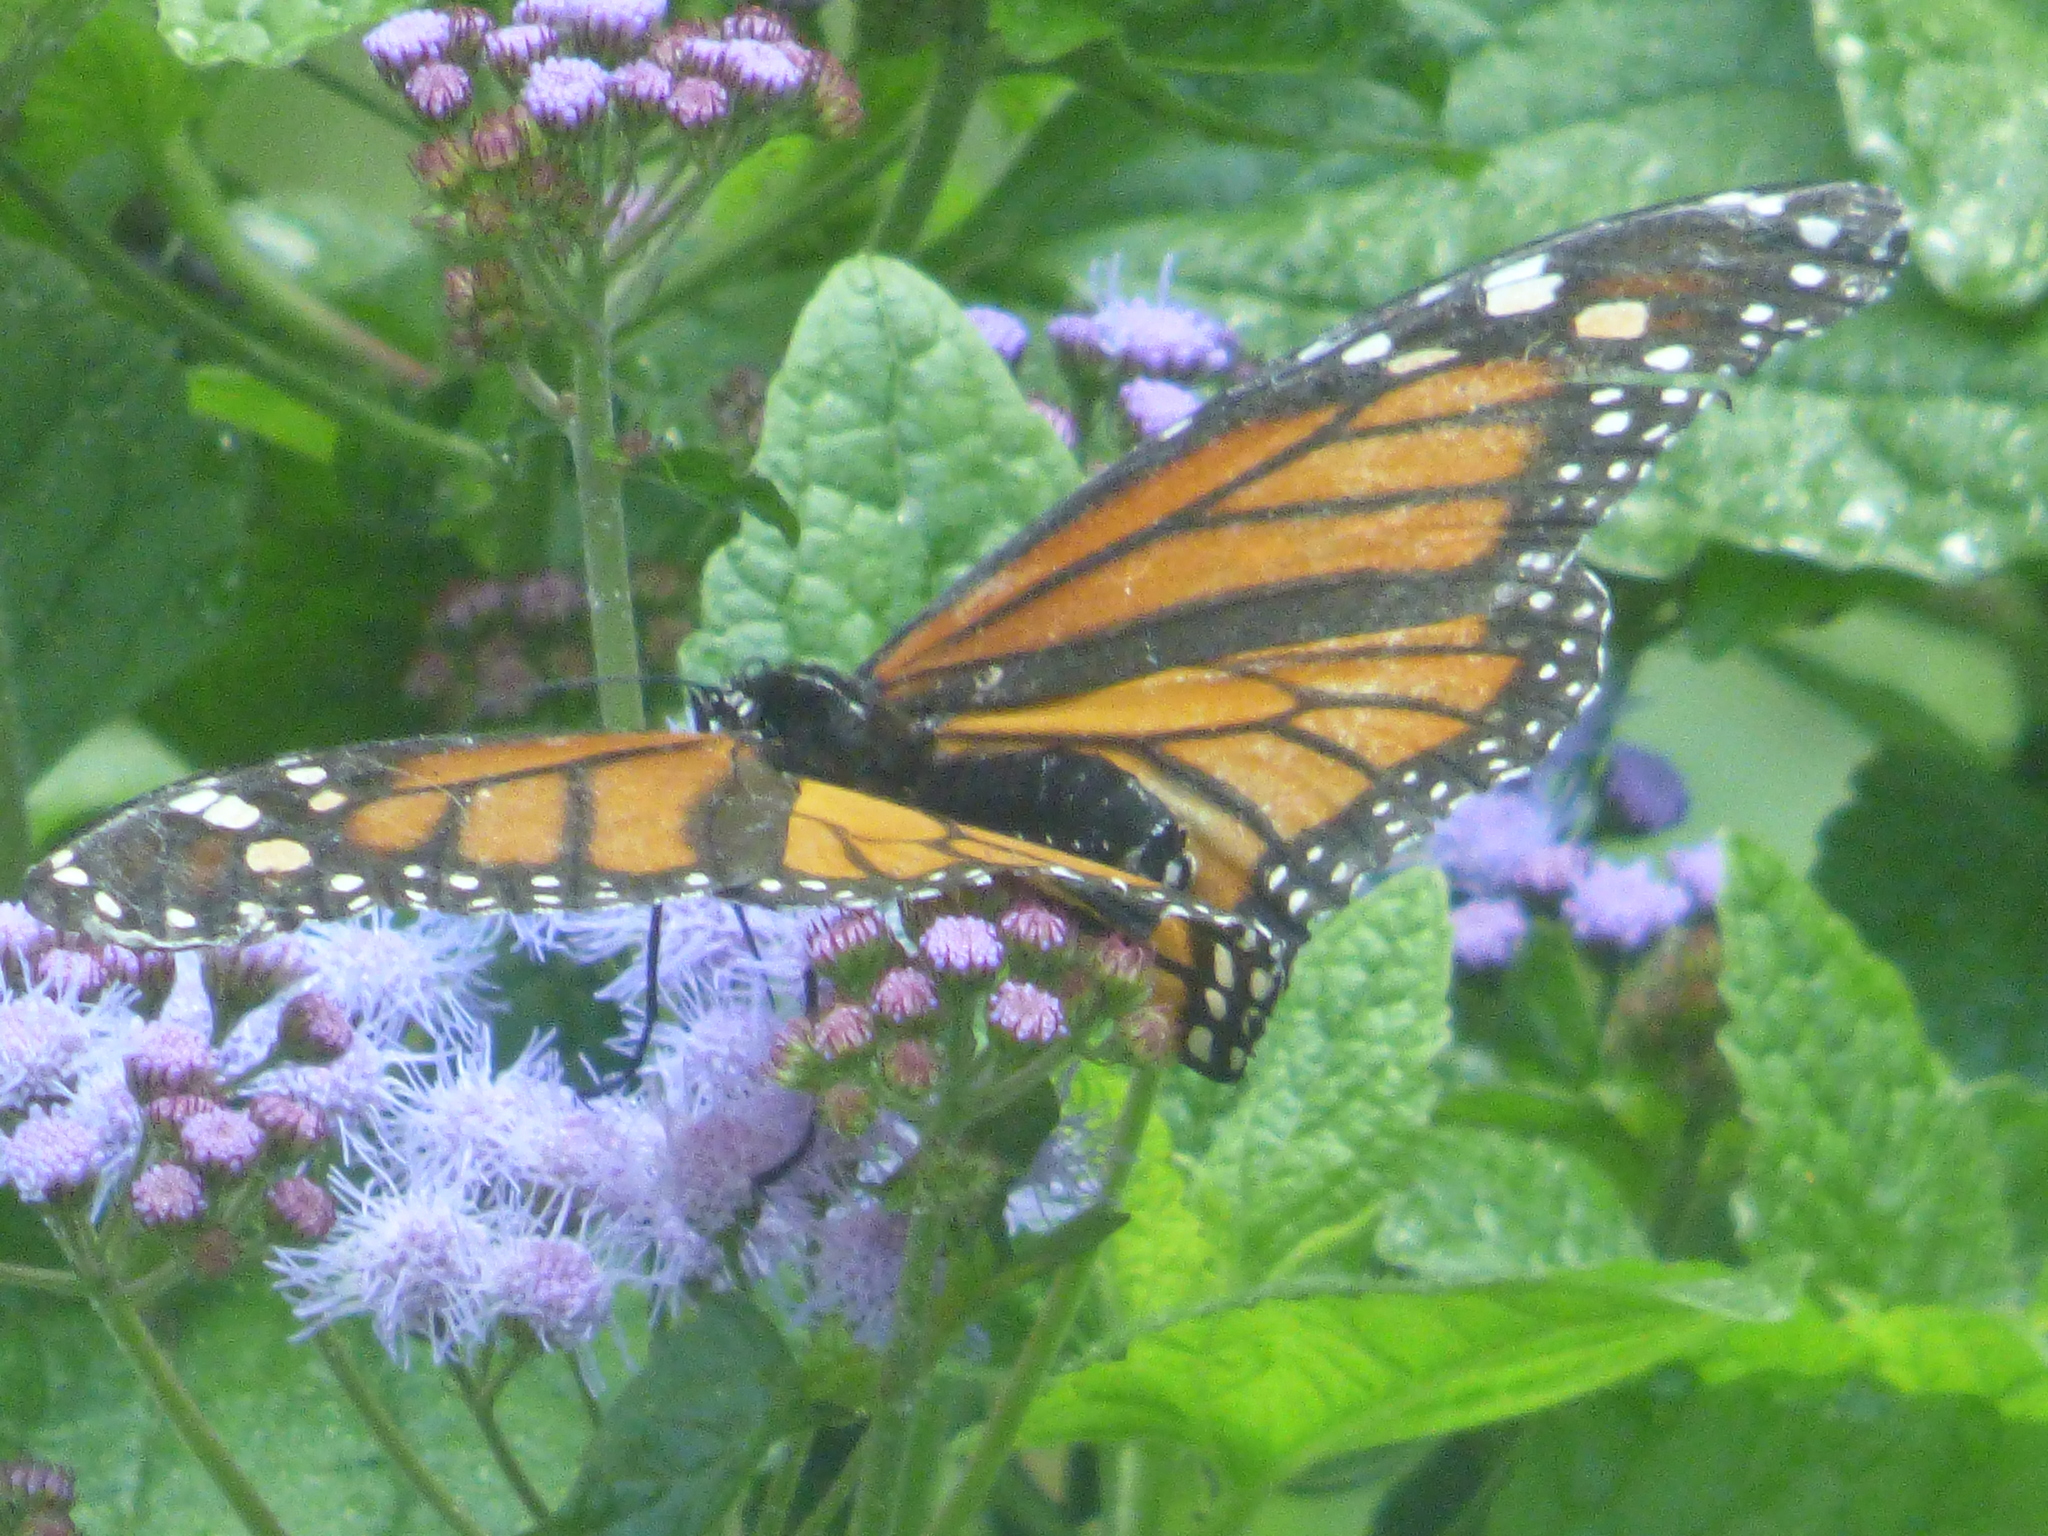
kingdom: Animalia
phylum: Arthropoda
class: Insecta
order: Lepidoptera
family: Nymphalidae
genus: Danaus
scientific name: Danaus plexippus
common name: Monarch
